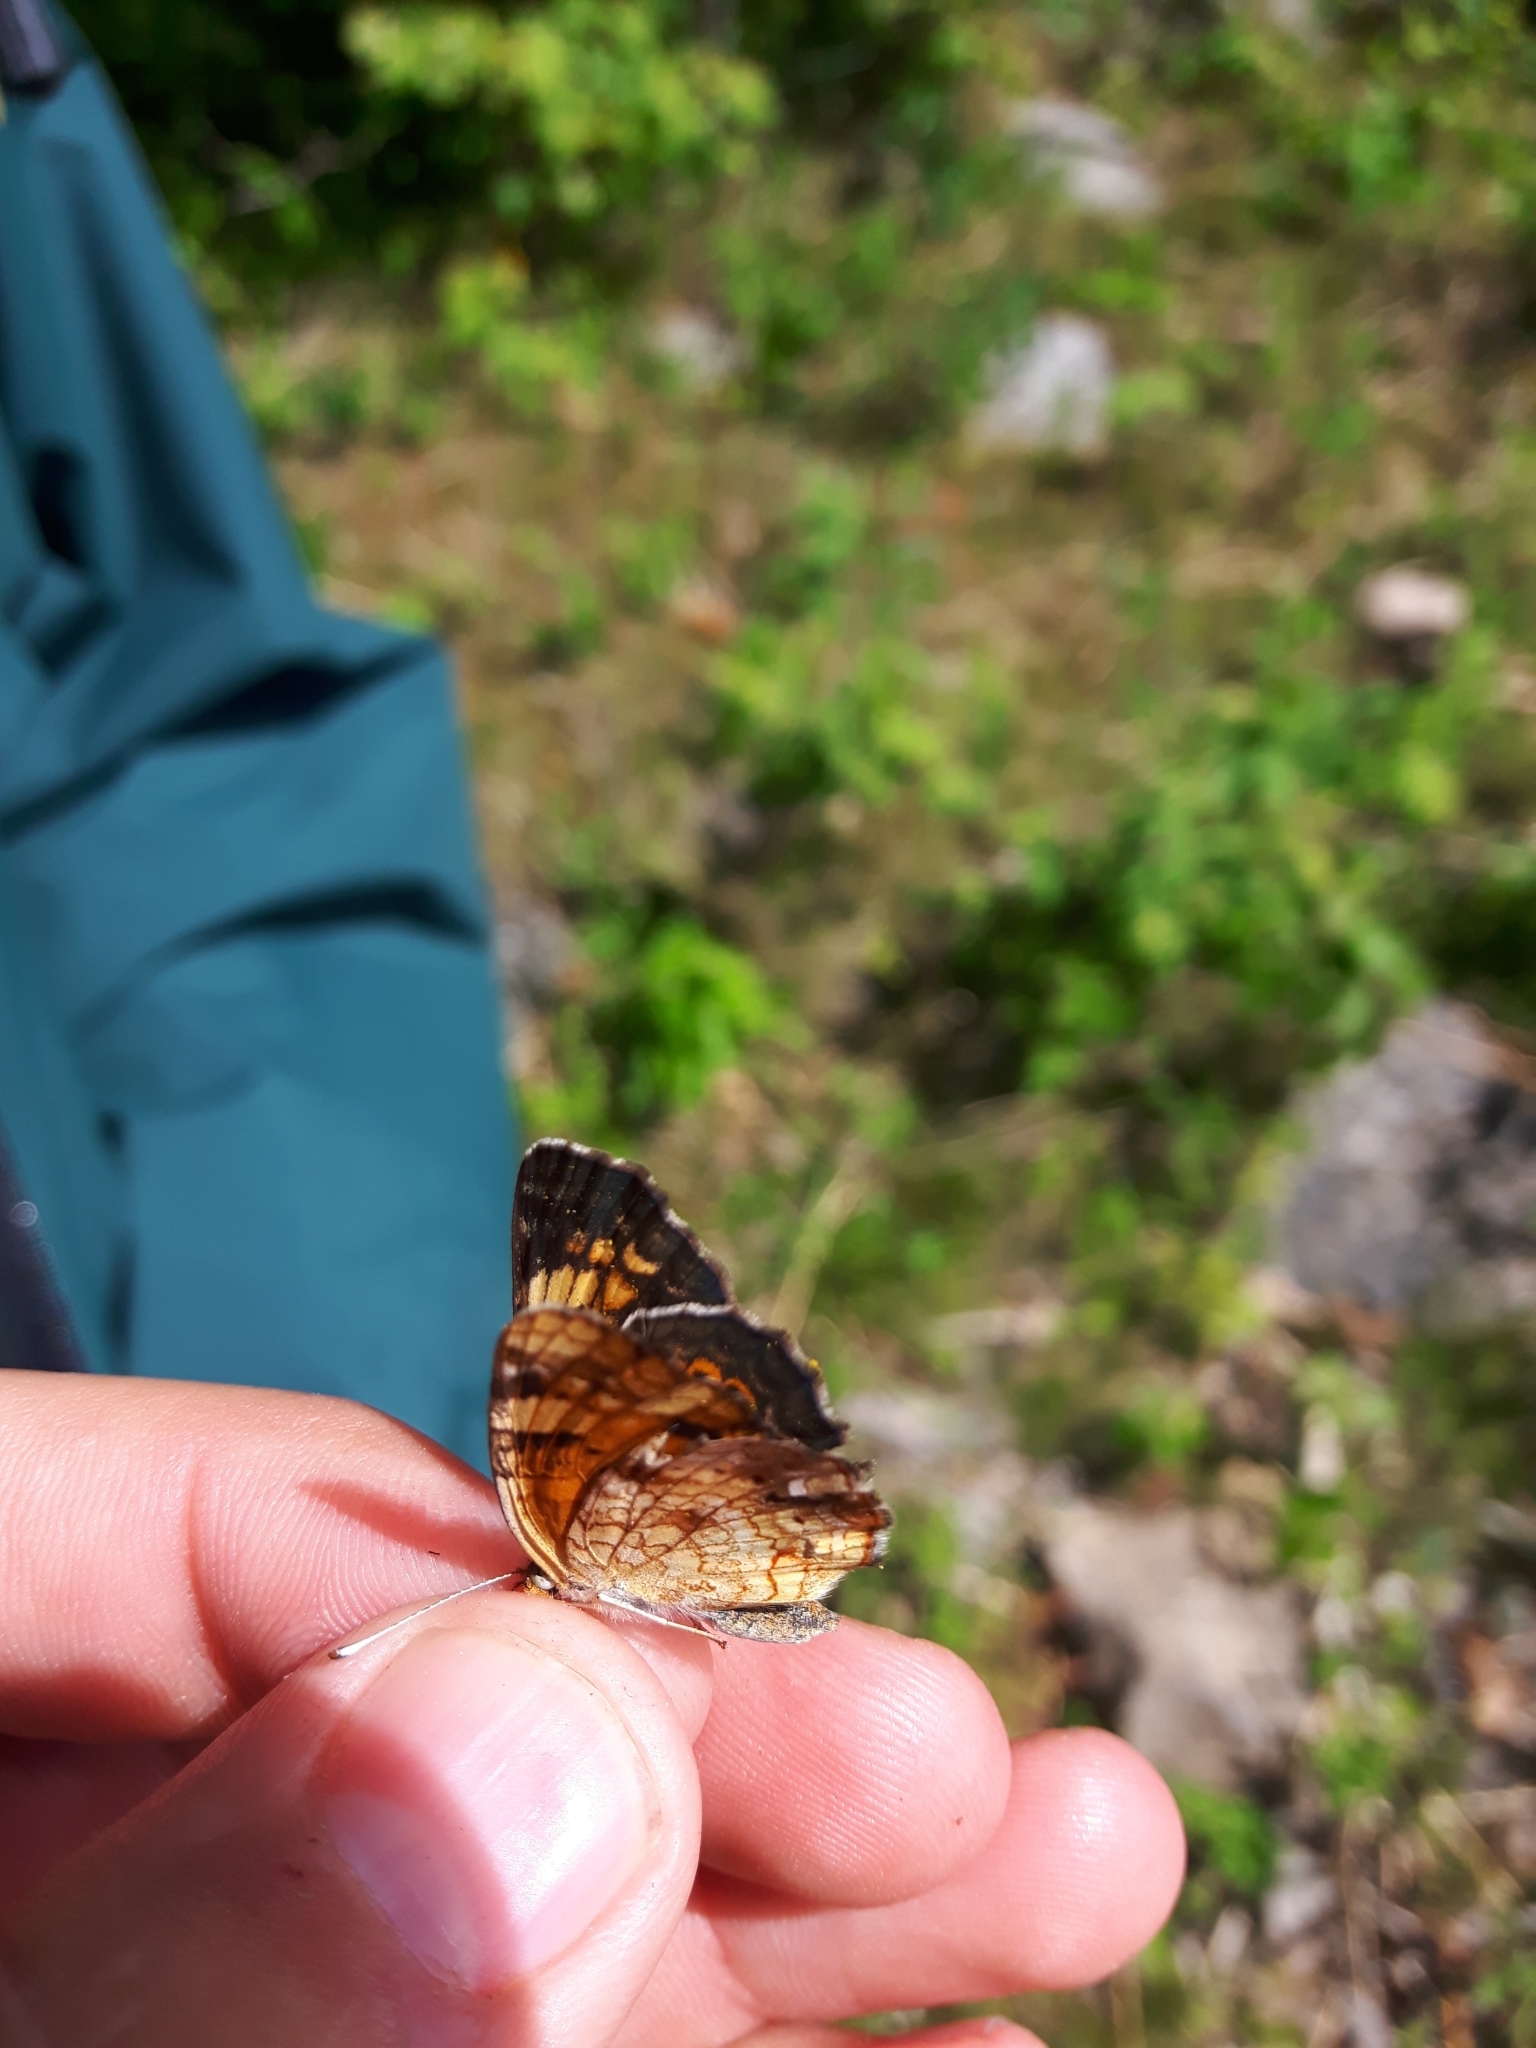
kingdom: Animalia
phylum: Arthropoda
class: Insecta
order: Lepidoptera
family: Nymphalidae
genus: Phyciodes
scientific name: Phyciodes tharos
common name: Pearl crescent
